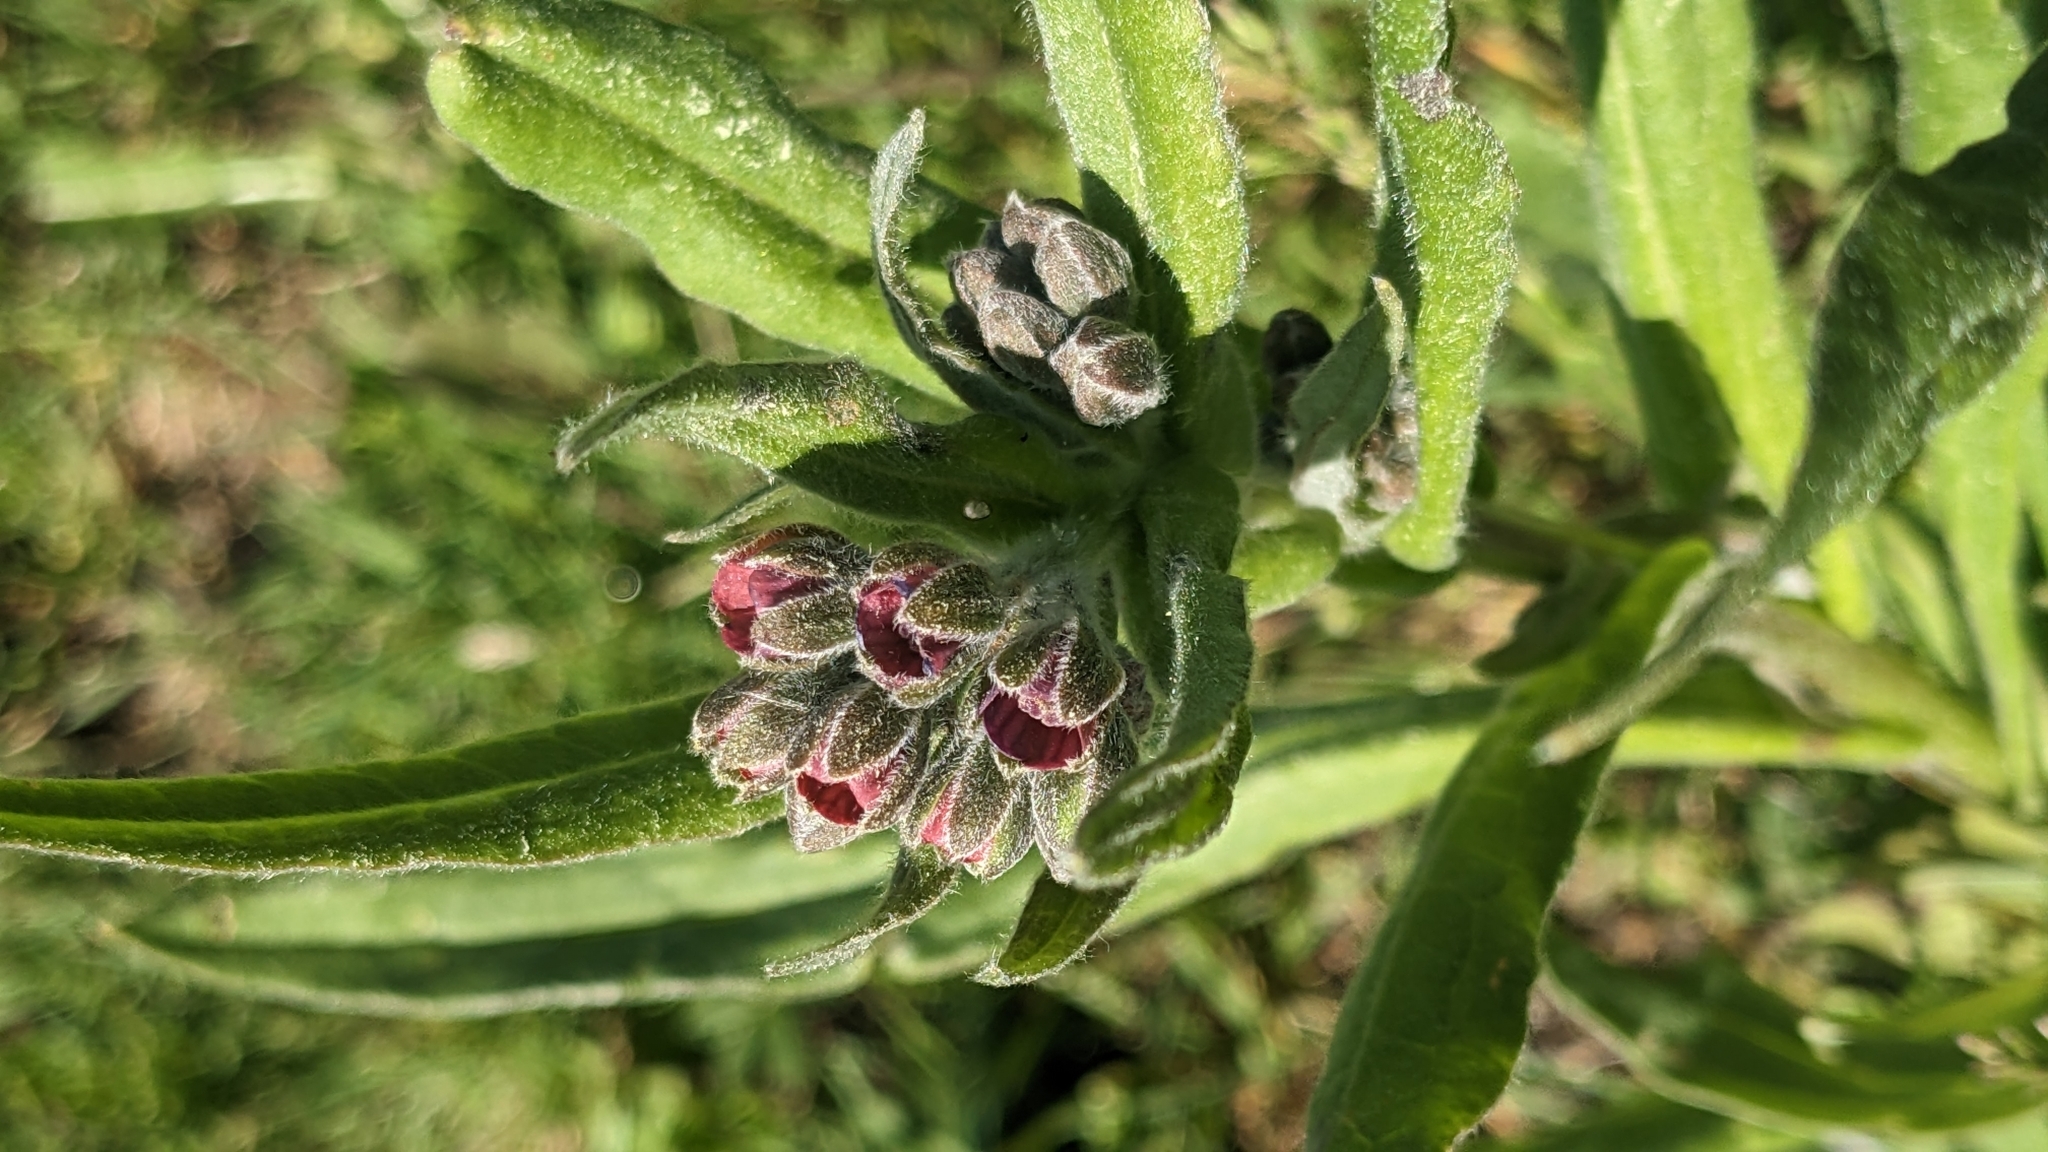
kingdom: Plantae
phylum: Tracheophyta
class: Magnoliopsida
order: Boraginales
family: Boraginaceae
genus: Cynoglossum
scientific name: Cynoglossum officinale
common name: Hound's-tongue
